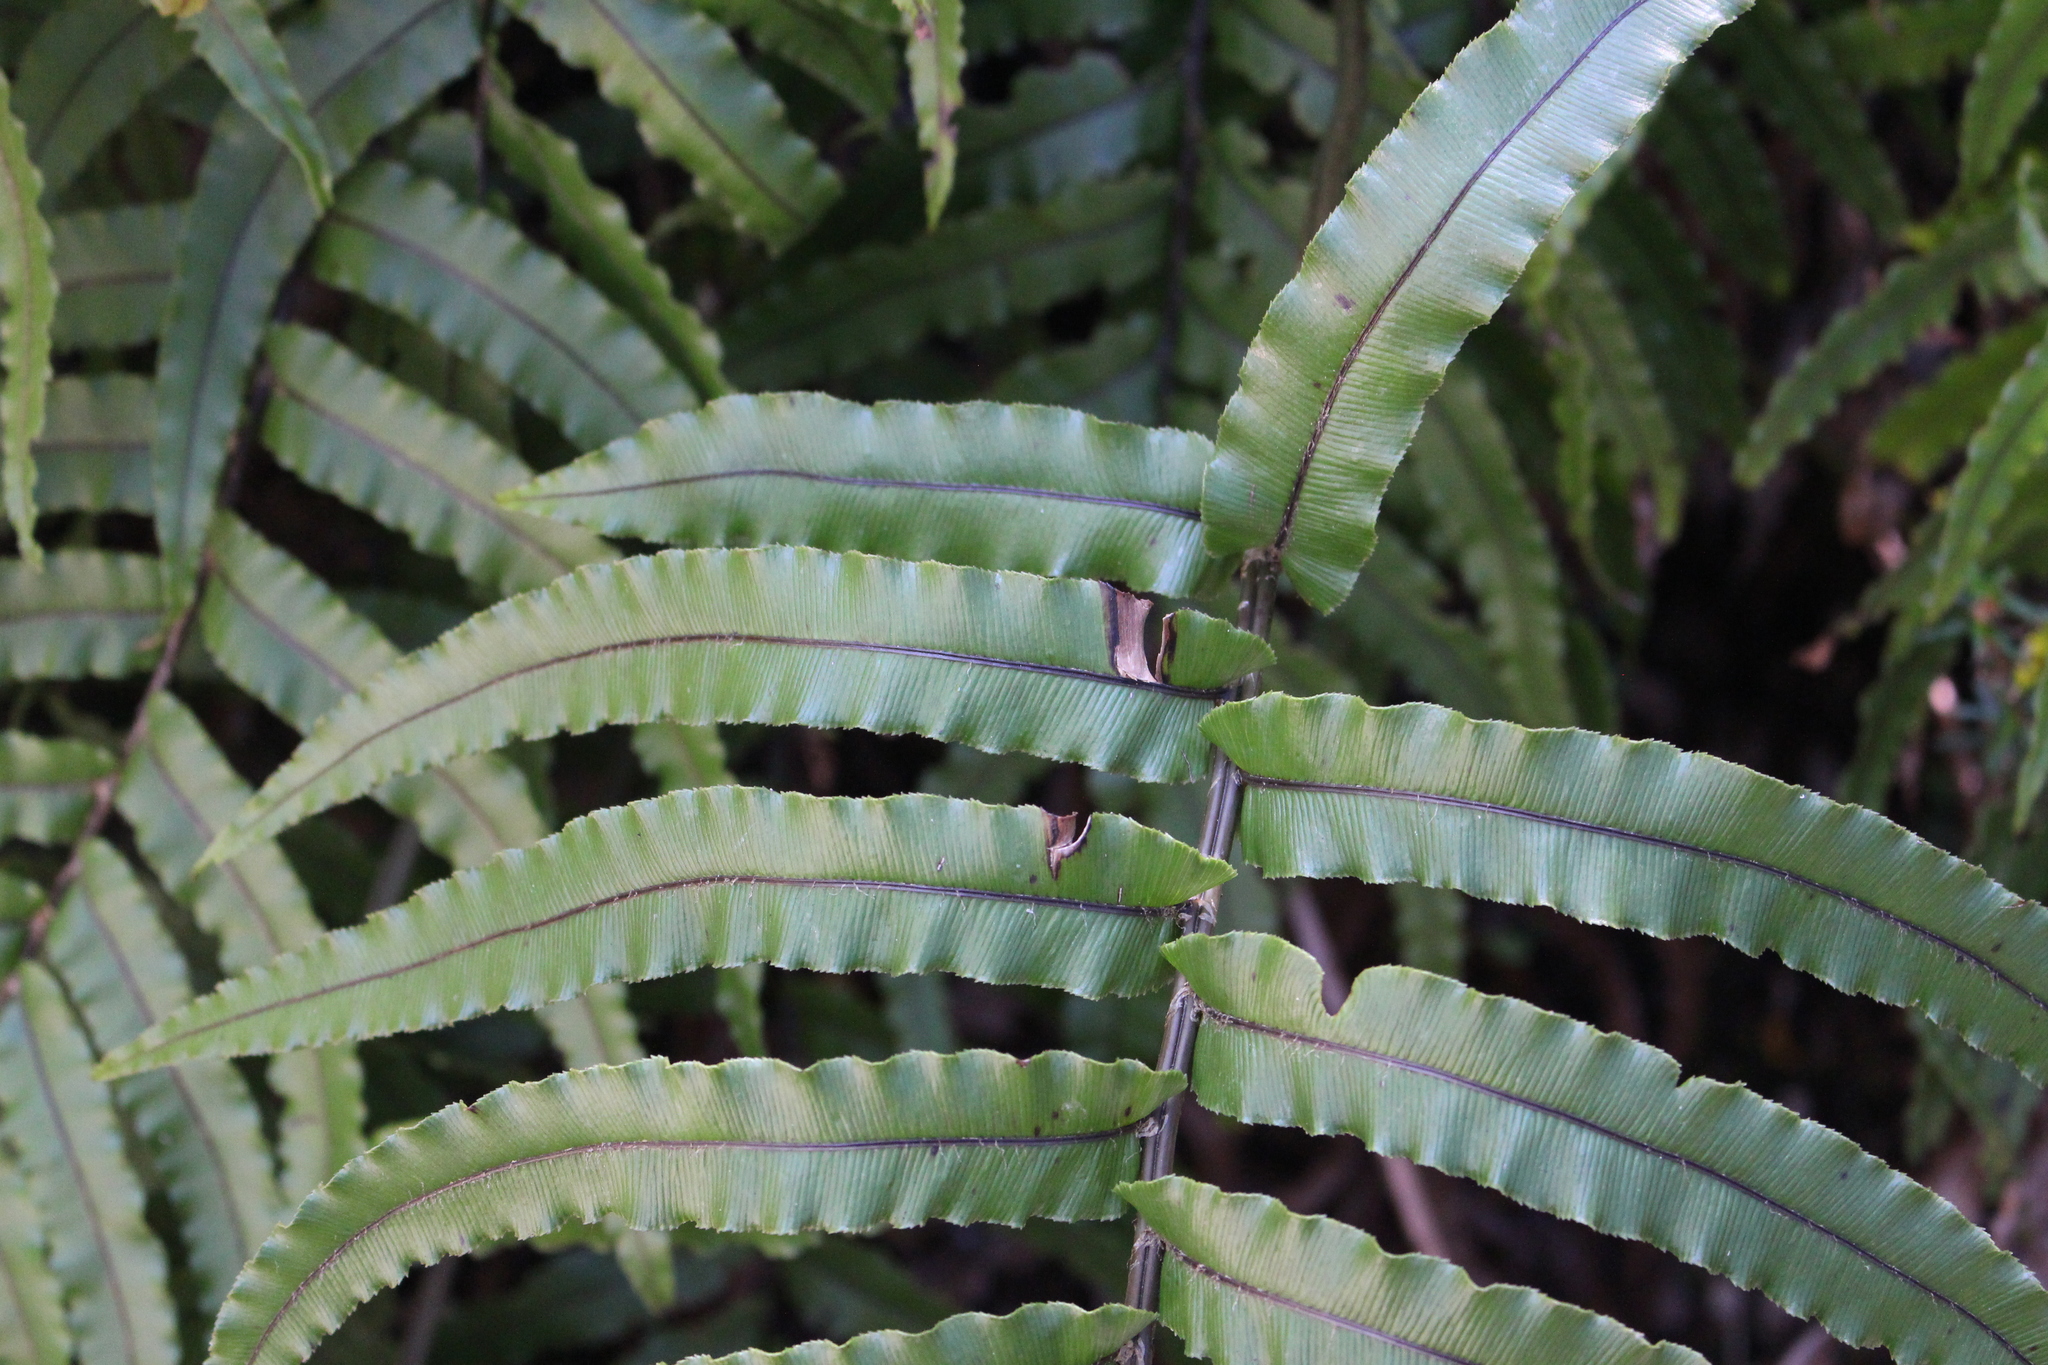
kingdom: Plantae
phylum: Tracheophyta
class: Polypodiopsida
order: Polypodiales
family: Blechnaceae
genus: Parablechnum
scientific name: Parablechnum montanum
